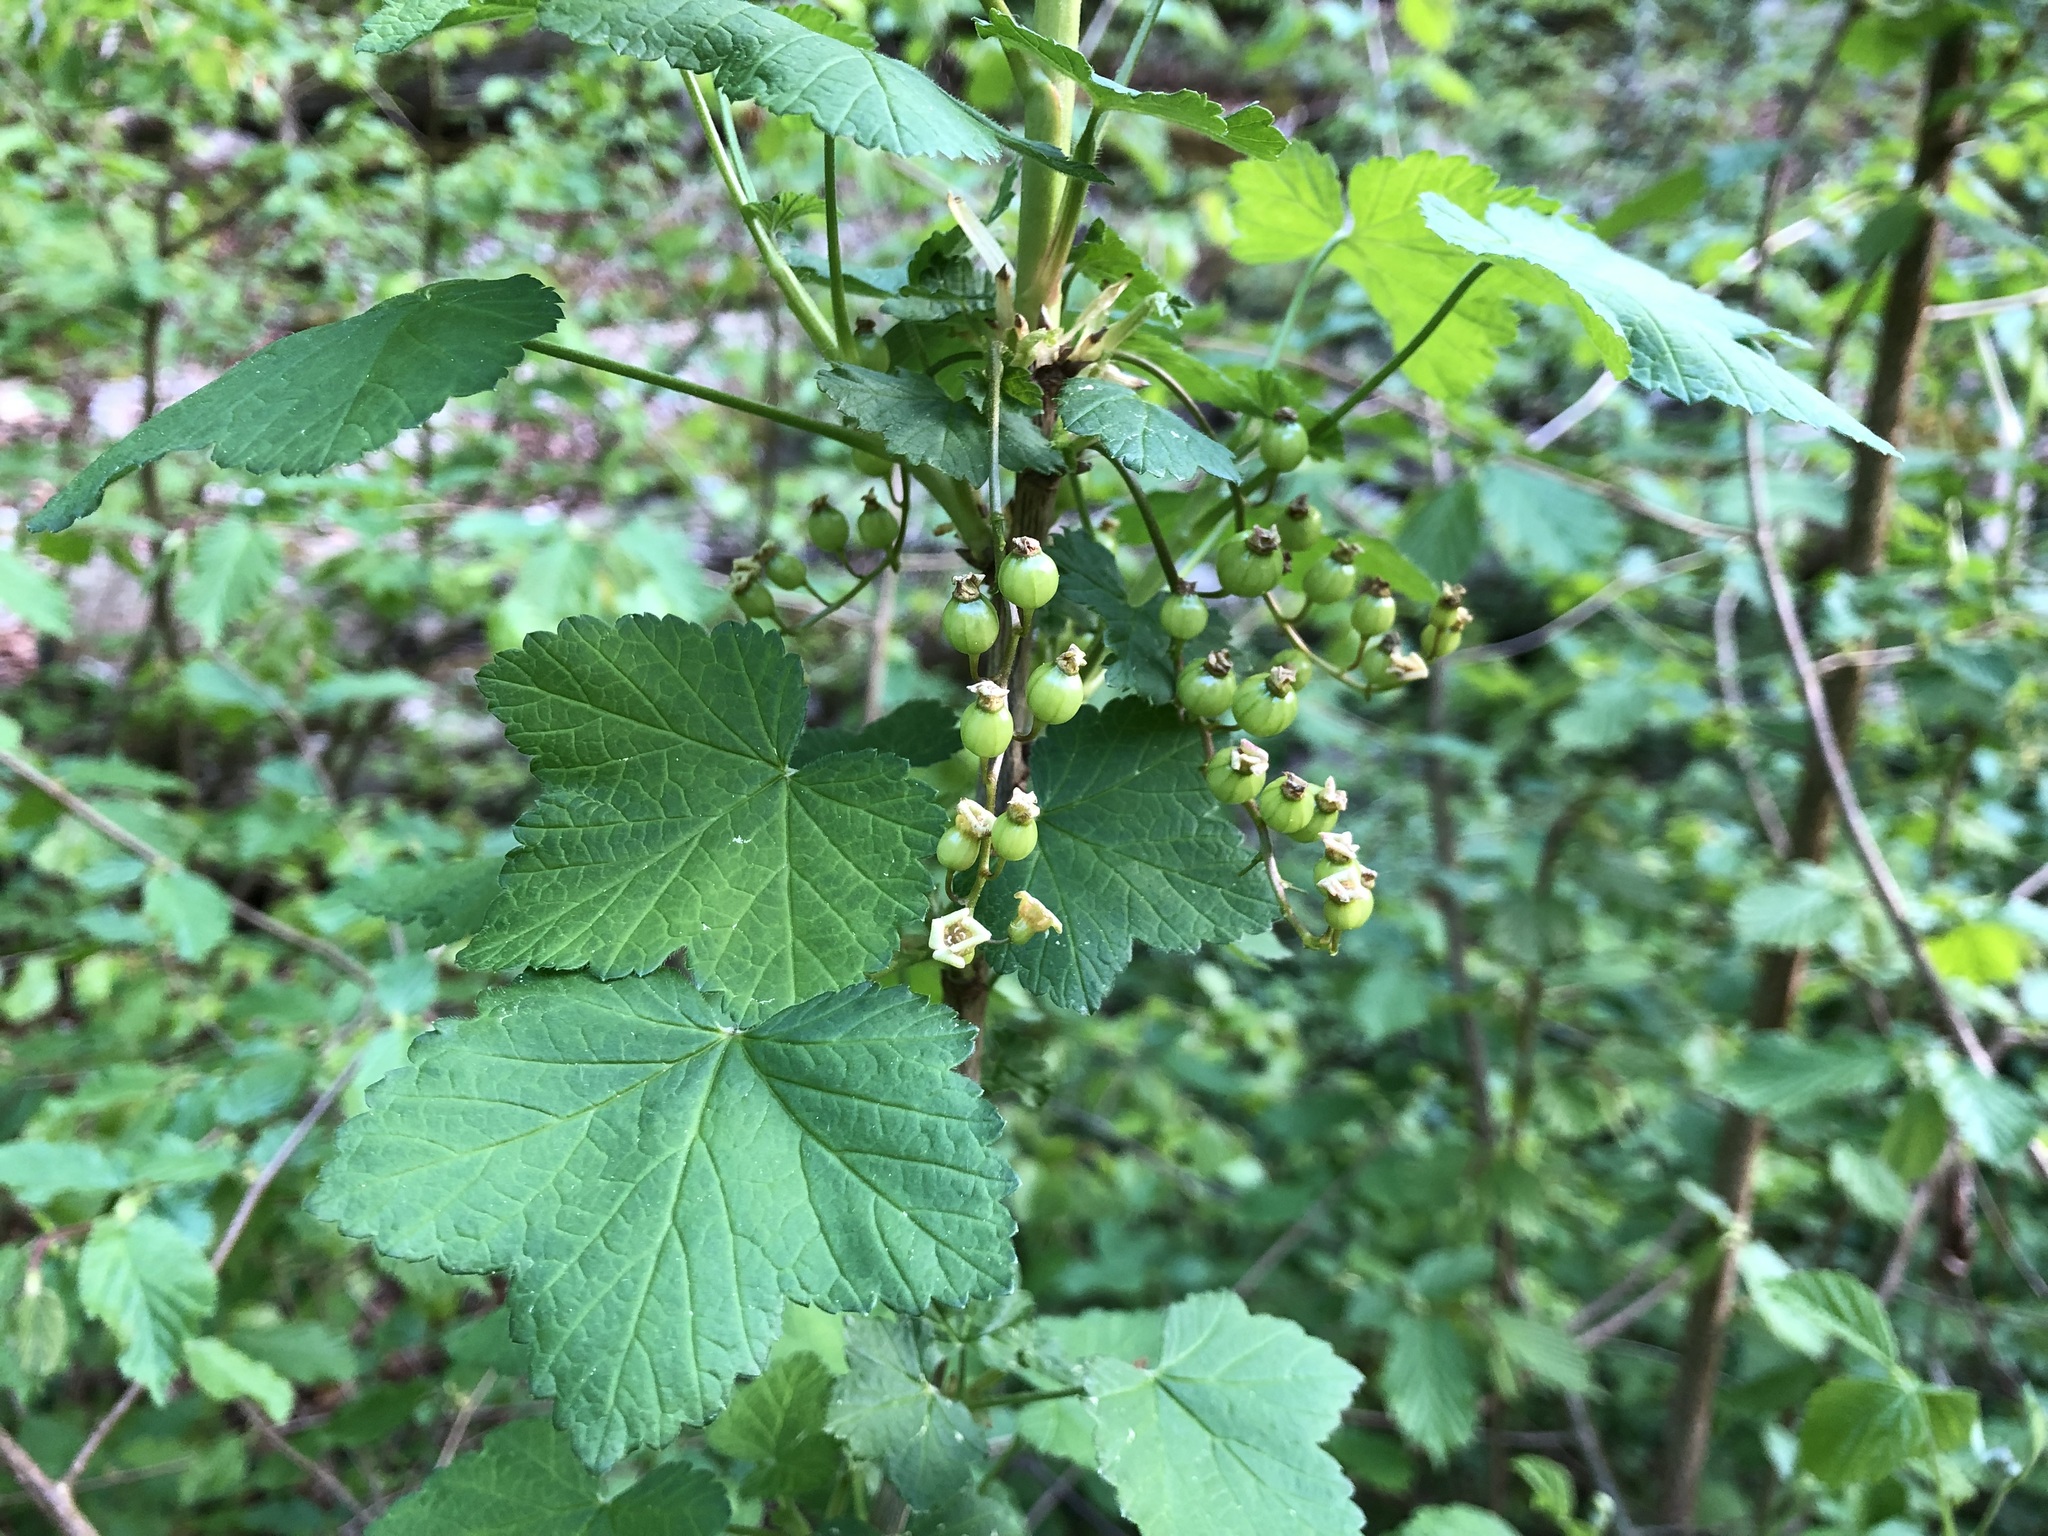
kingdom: Plantae
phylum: Tracheophyta
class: Magnoliopsida
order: Saxifragales
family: Grossulariaceae
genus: Ribes
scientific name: Ribes rubrum
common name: Red currant
